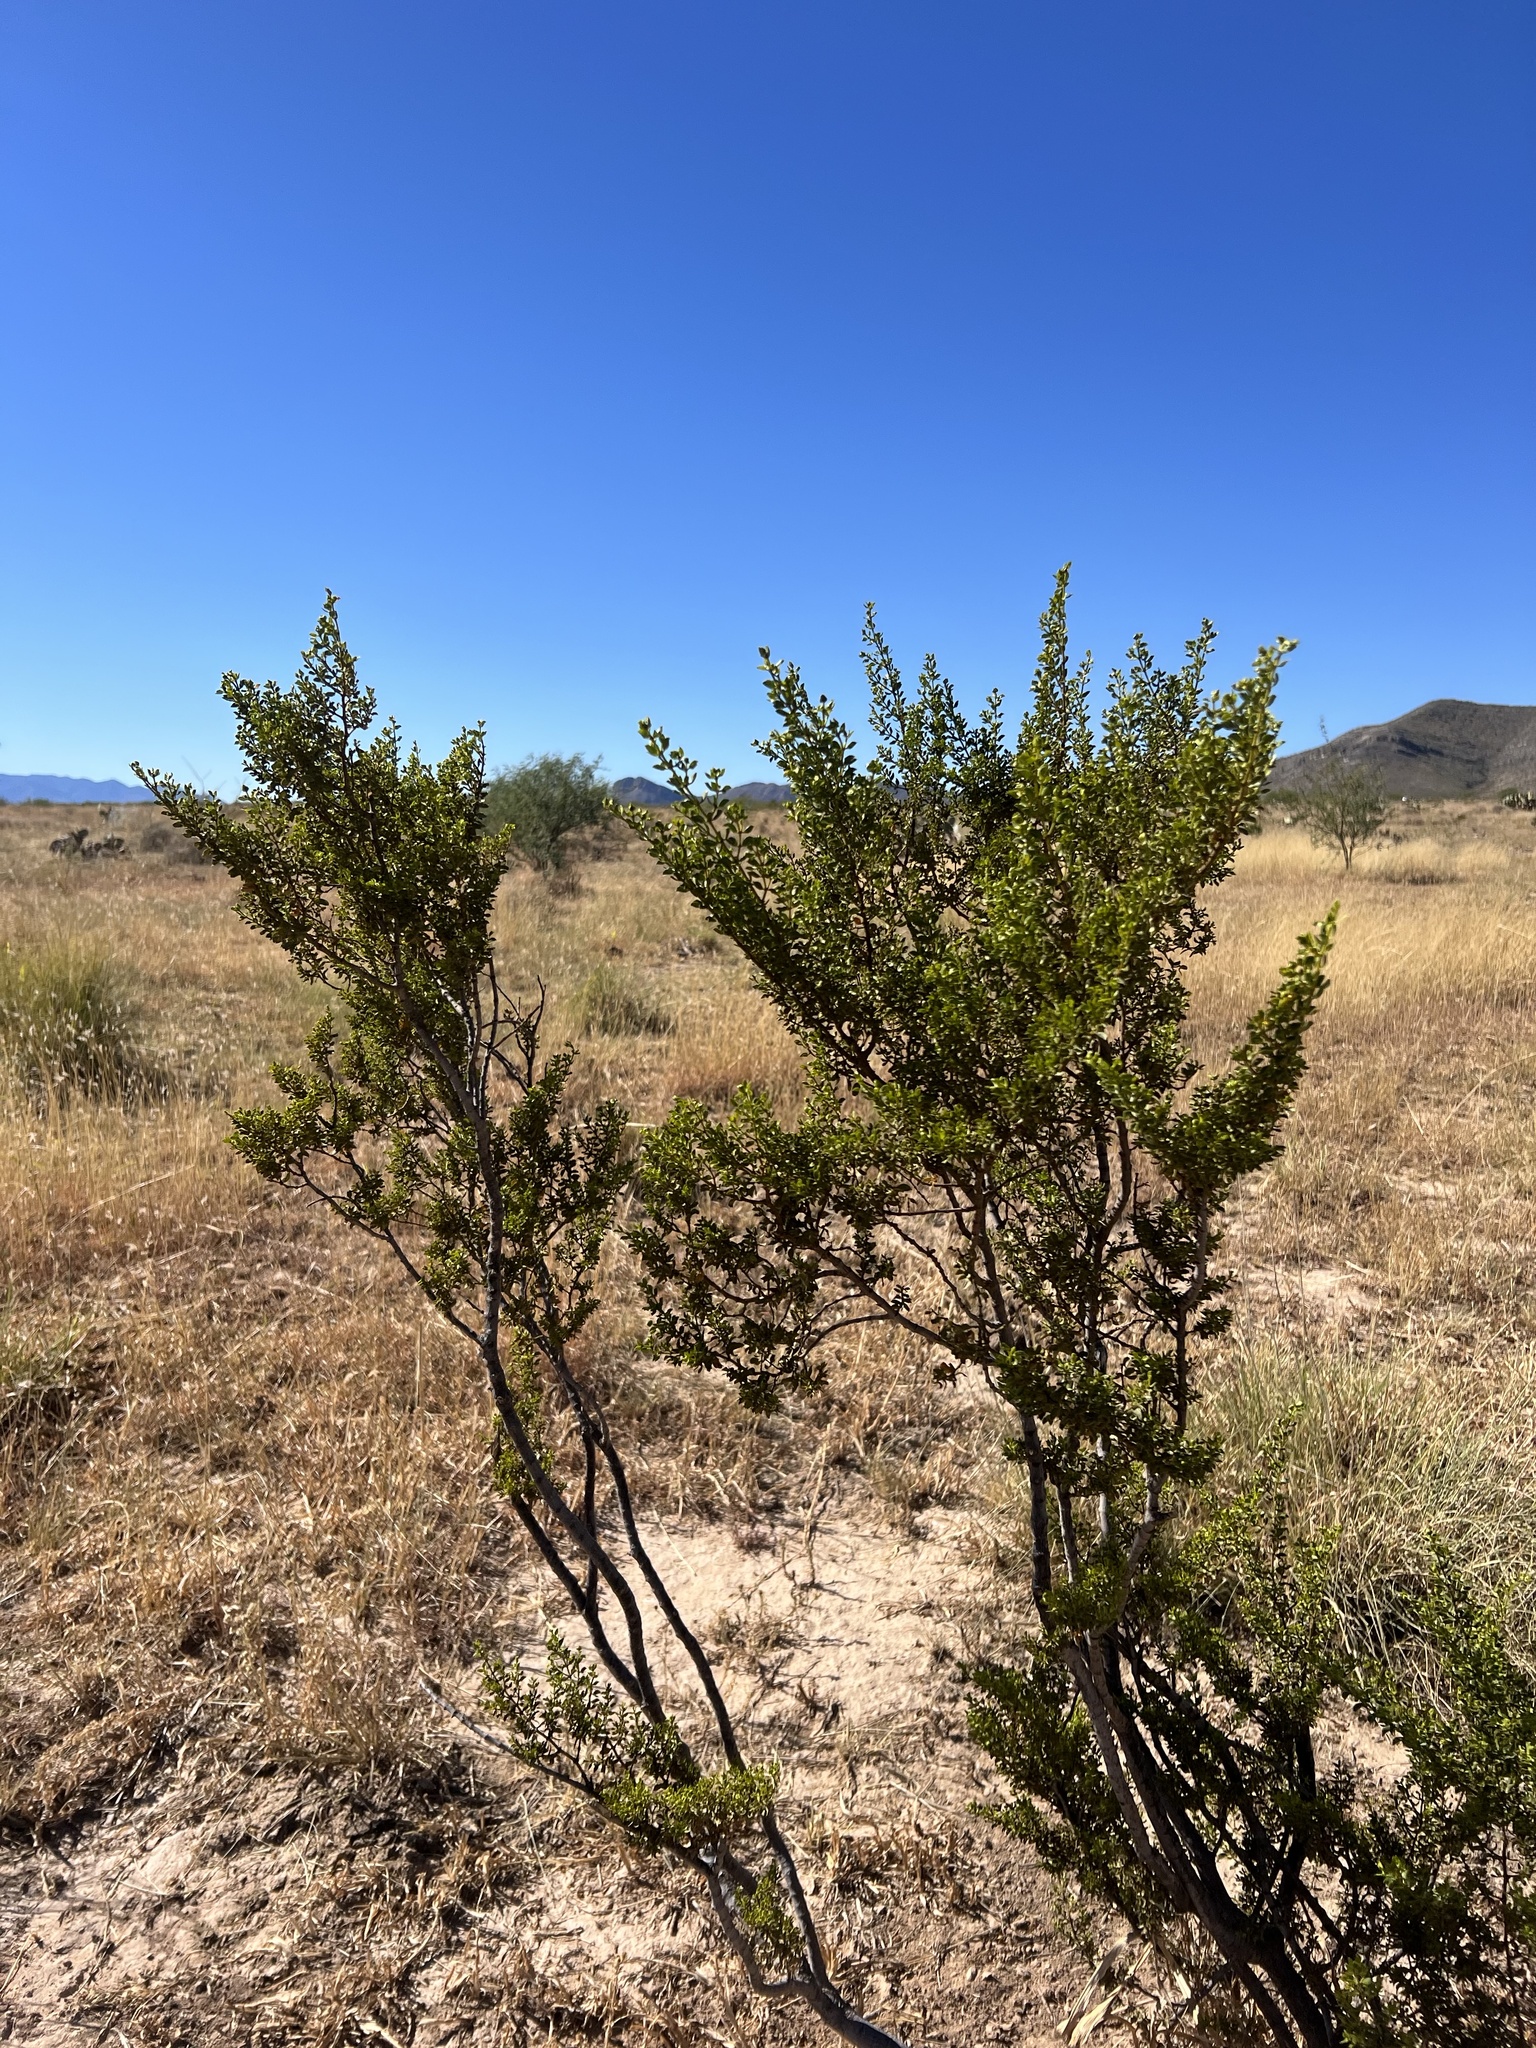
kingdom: Plantae
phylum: Tracheophyta
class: Magnoliopsida
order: Zygophyllales
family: Zygophyllaceae
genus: Larrea
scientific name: Larrea tridentata
